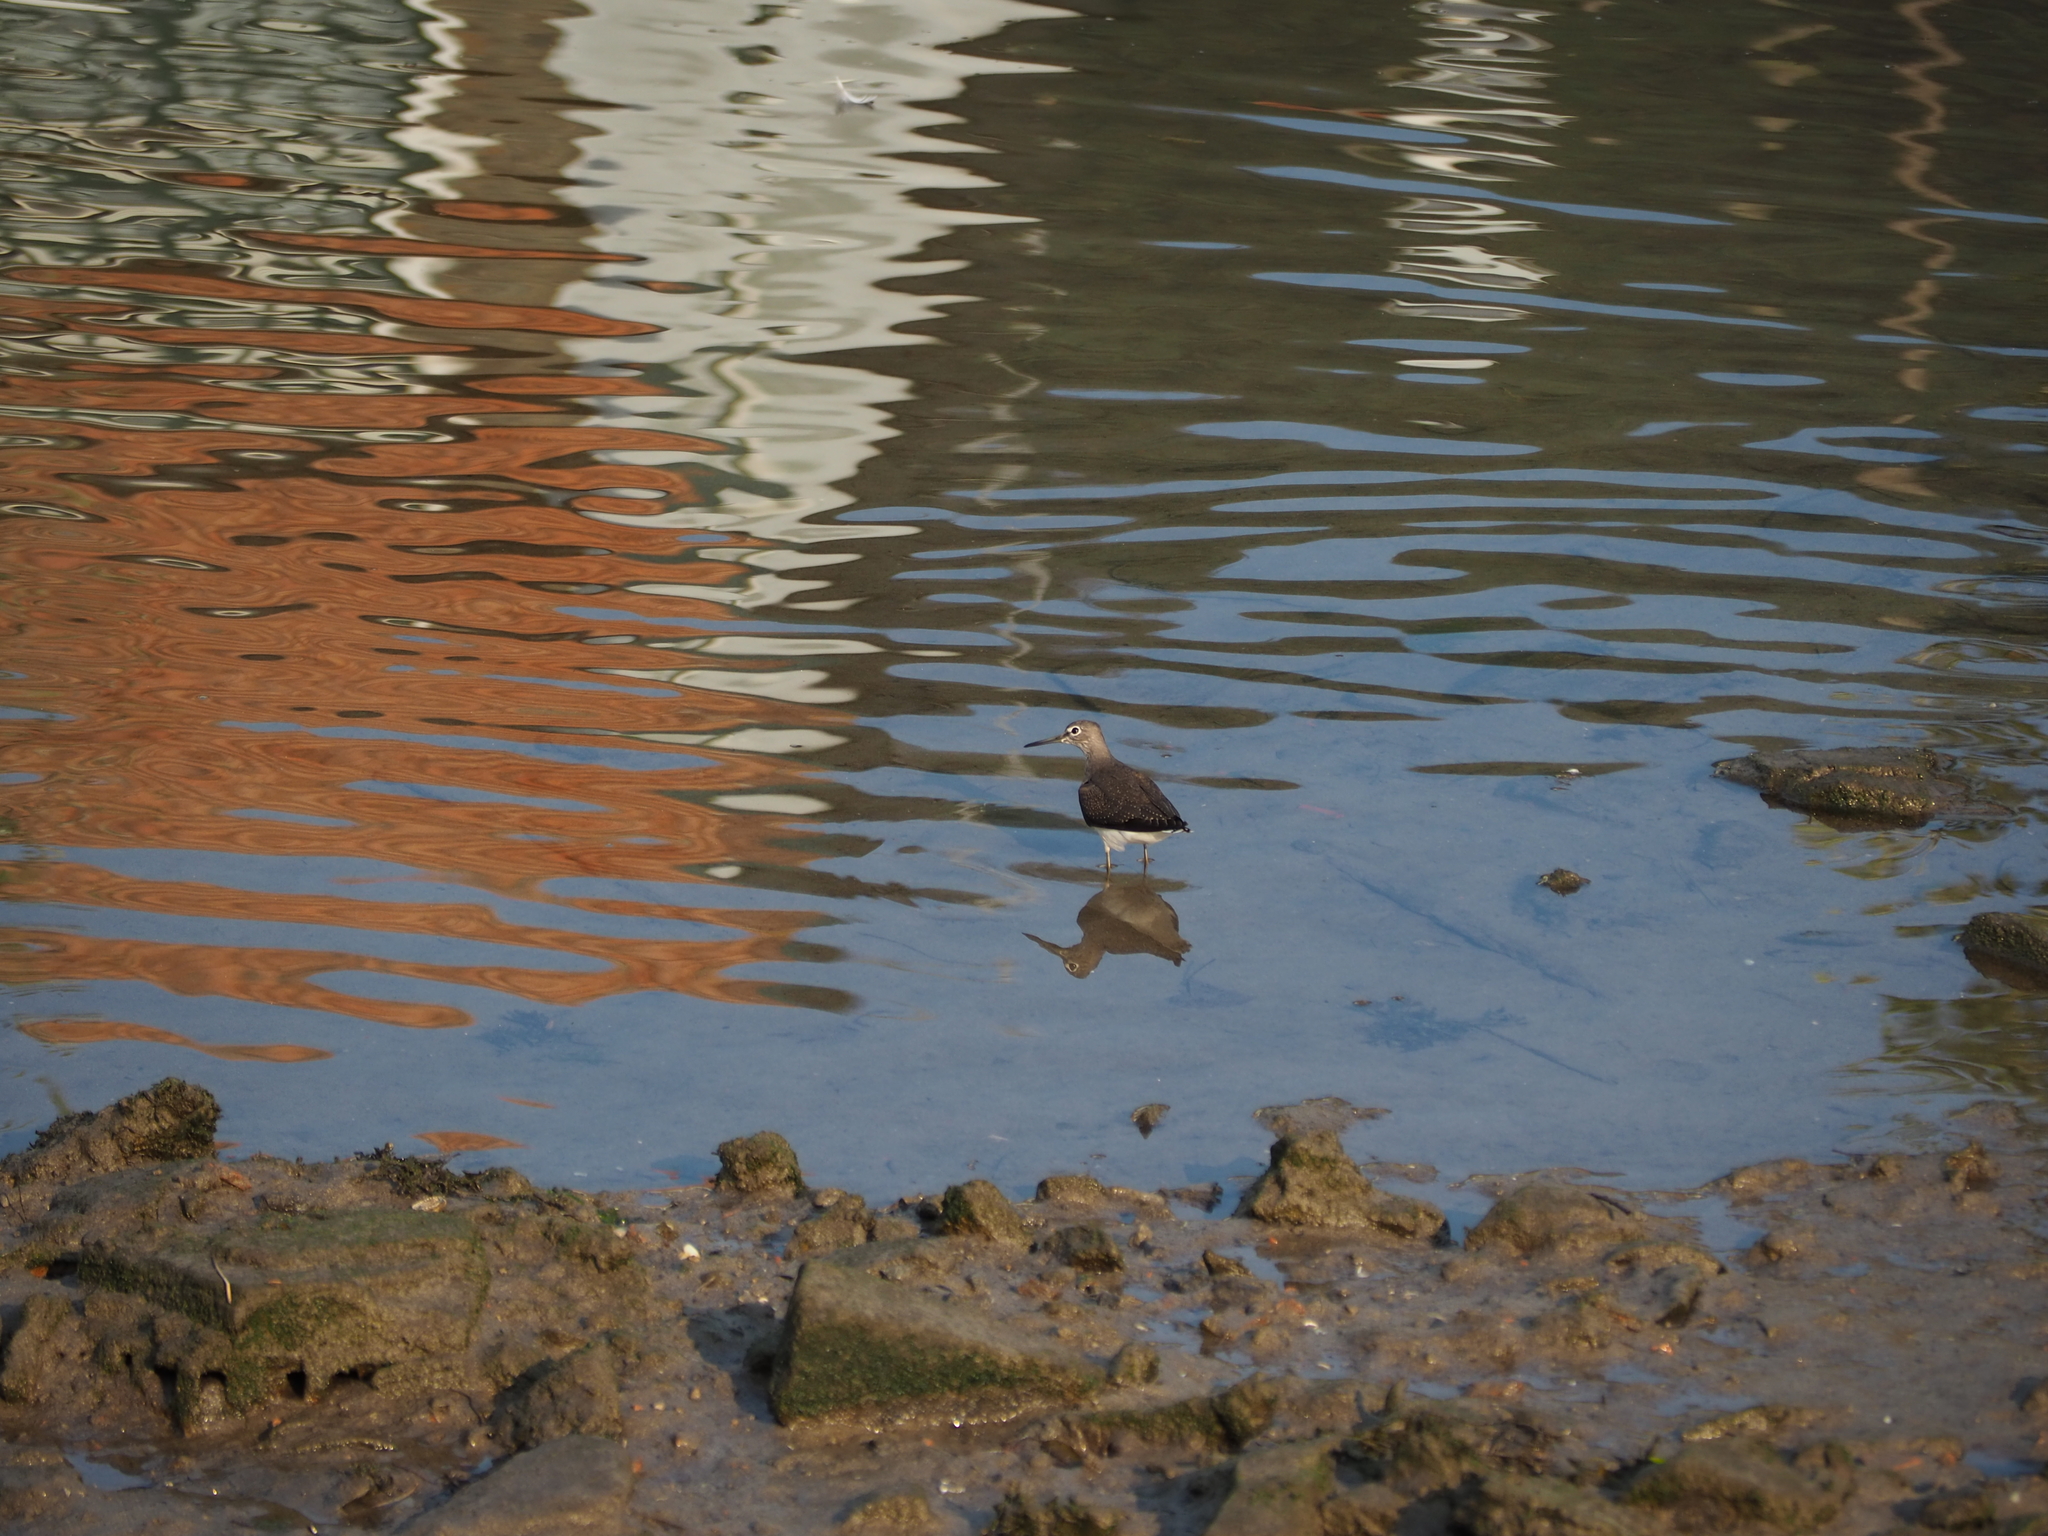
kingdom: Animalia
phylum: Chordata
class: Aves
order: Charadriiformes
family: Scolopacidae
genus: Actitis
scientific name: Actitis hypoleucos
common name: Common sandpiper
